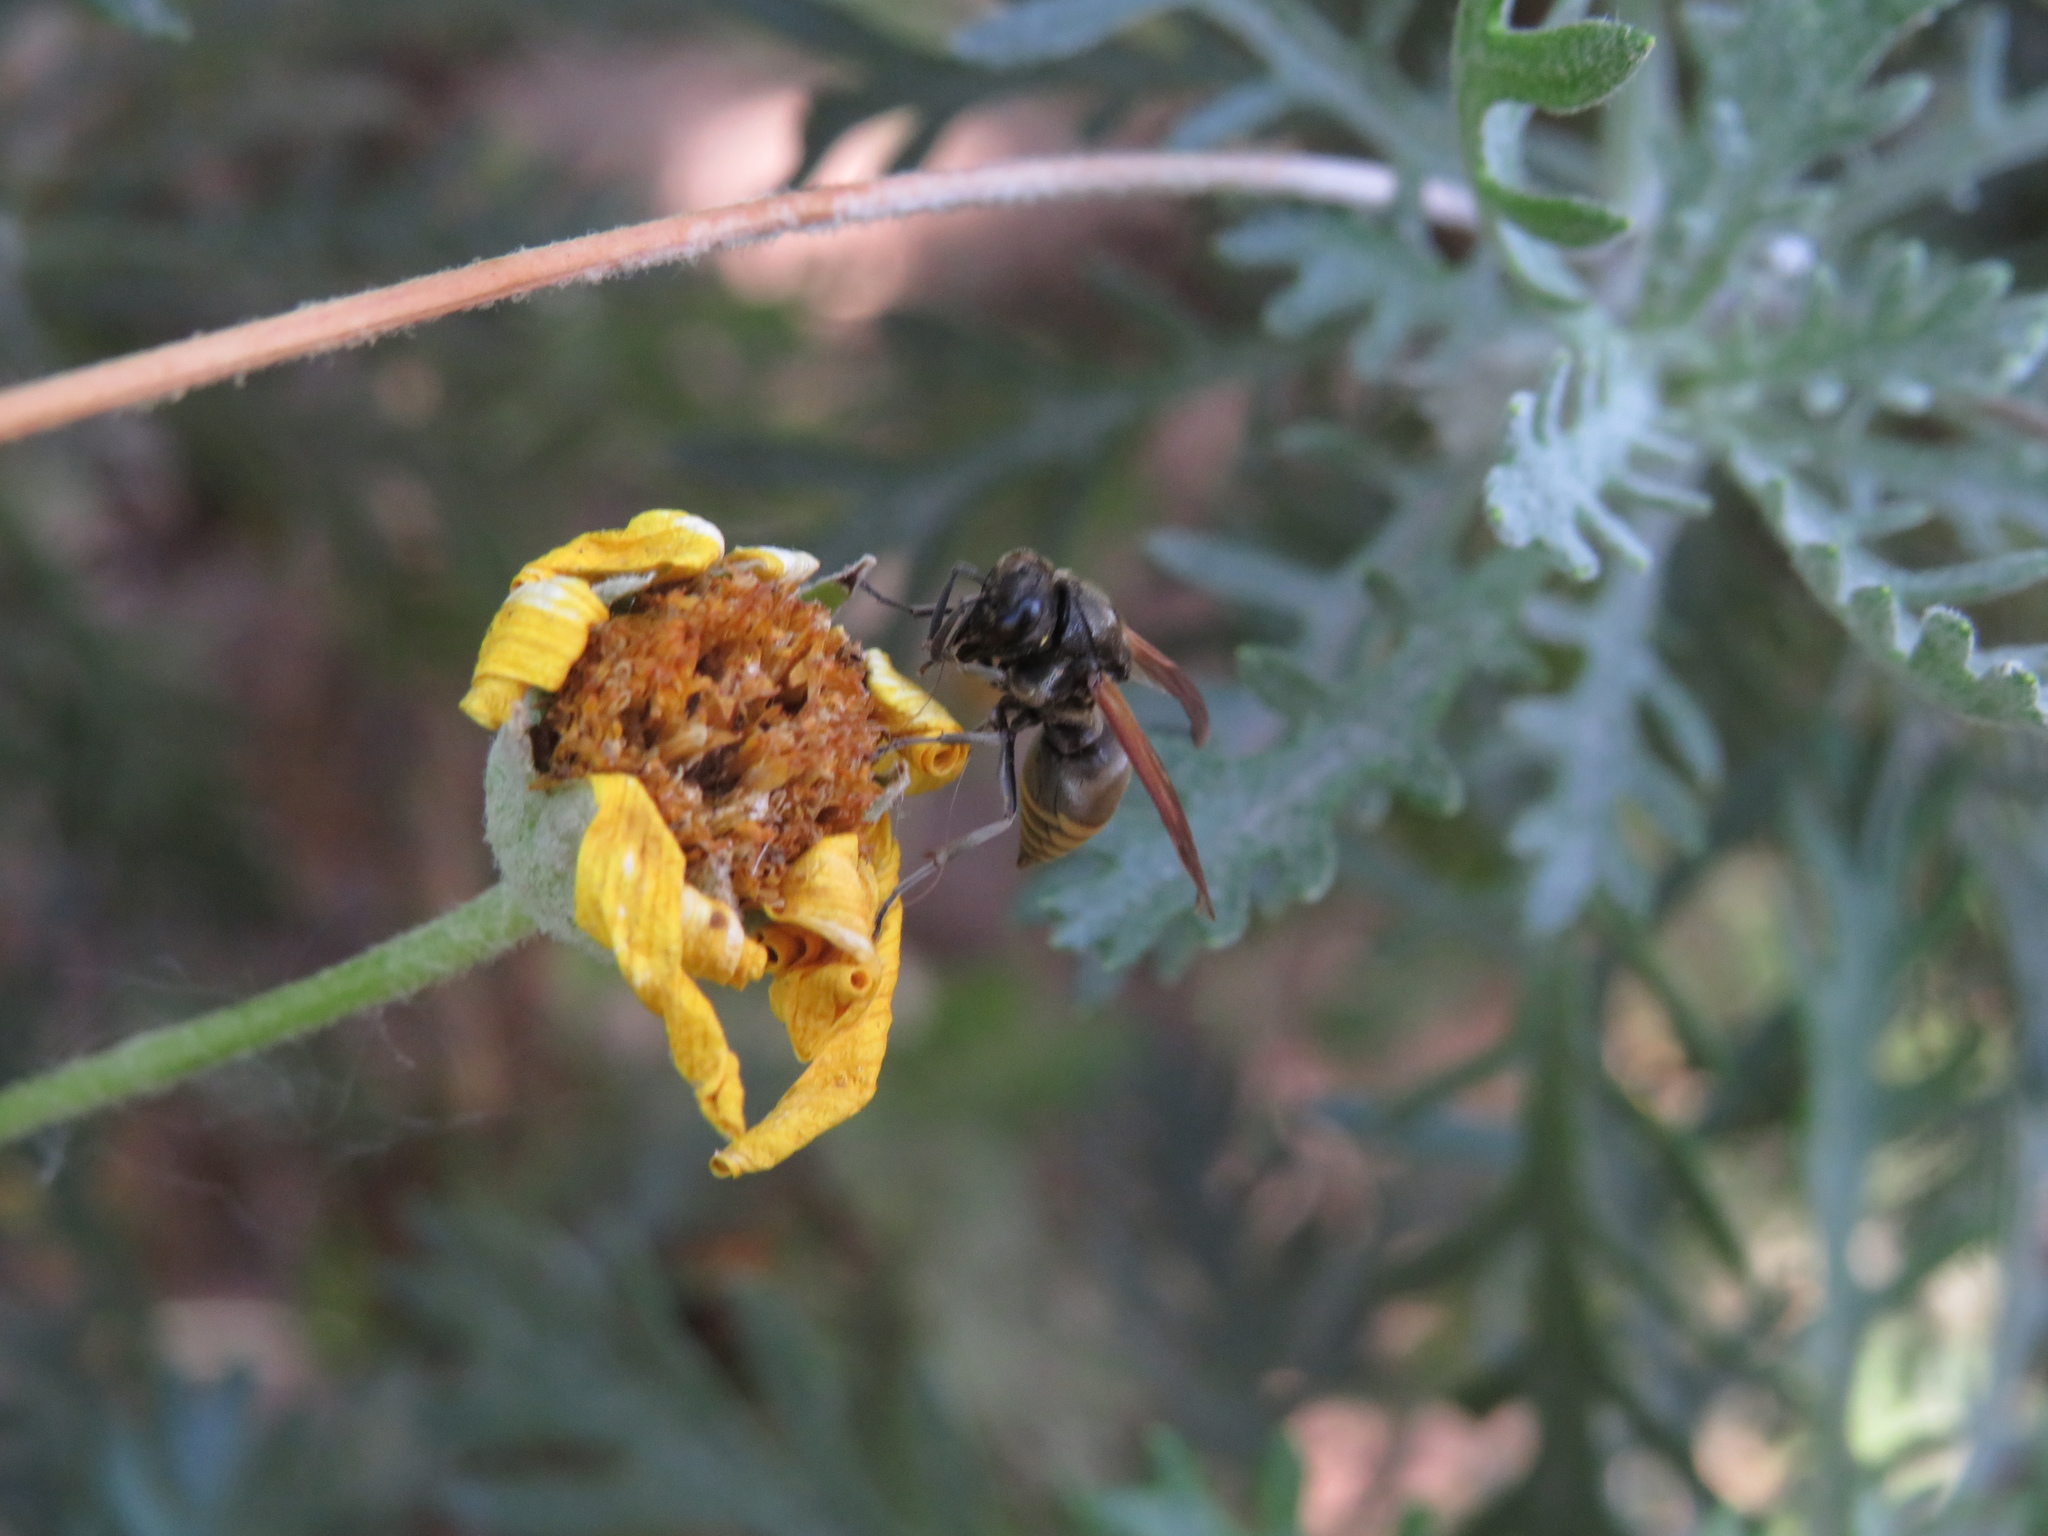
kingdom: Animalia
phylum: Arthropoda
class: Insecta
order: Hymenoptera
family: Vespidae
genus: Brachygastra
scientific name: Brachygastra lecheguana
